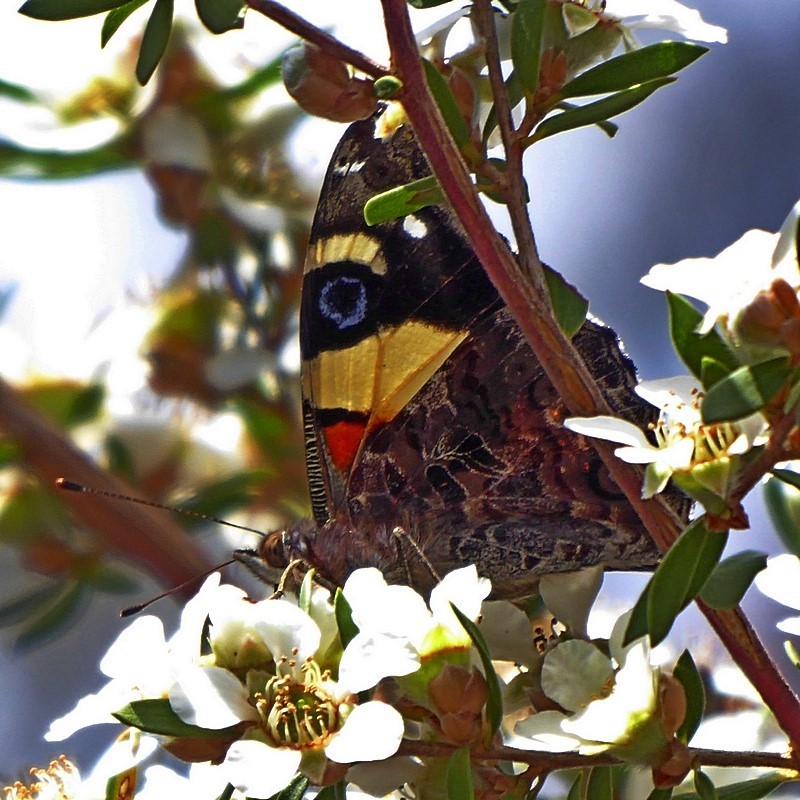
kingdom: Animalia
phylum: Arthropoda
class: Insecta
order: Lepidoptera
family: Nymphalidae
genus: Vanessa
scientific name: Vanessa itea
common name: Yellow admiral
